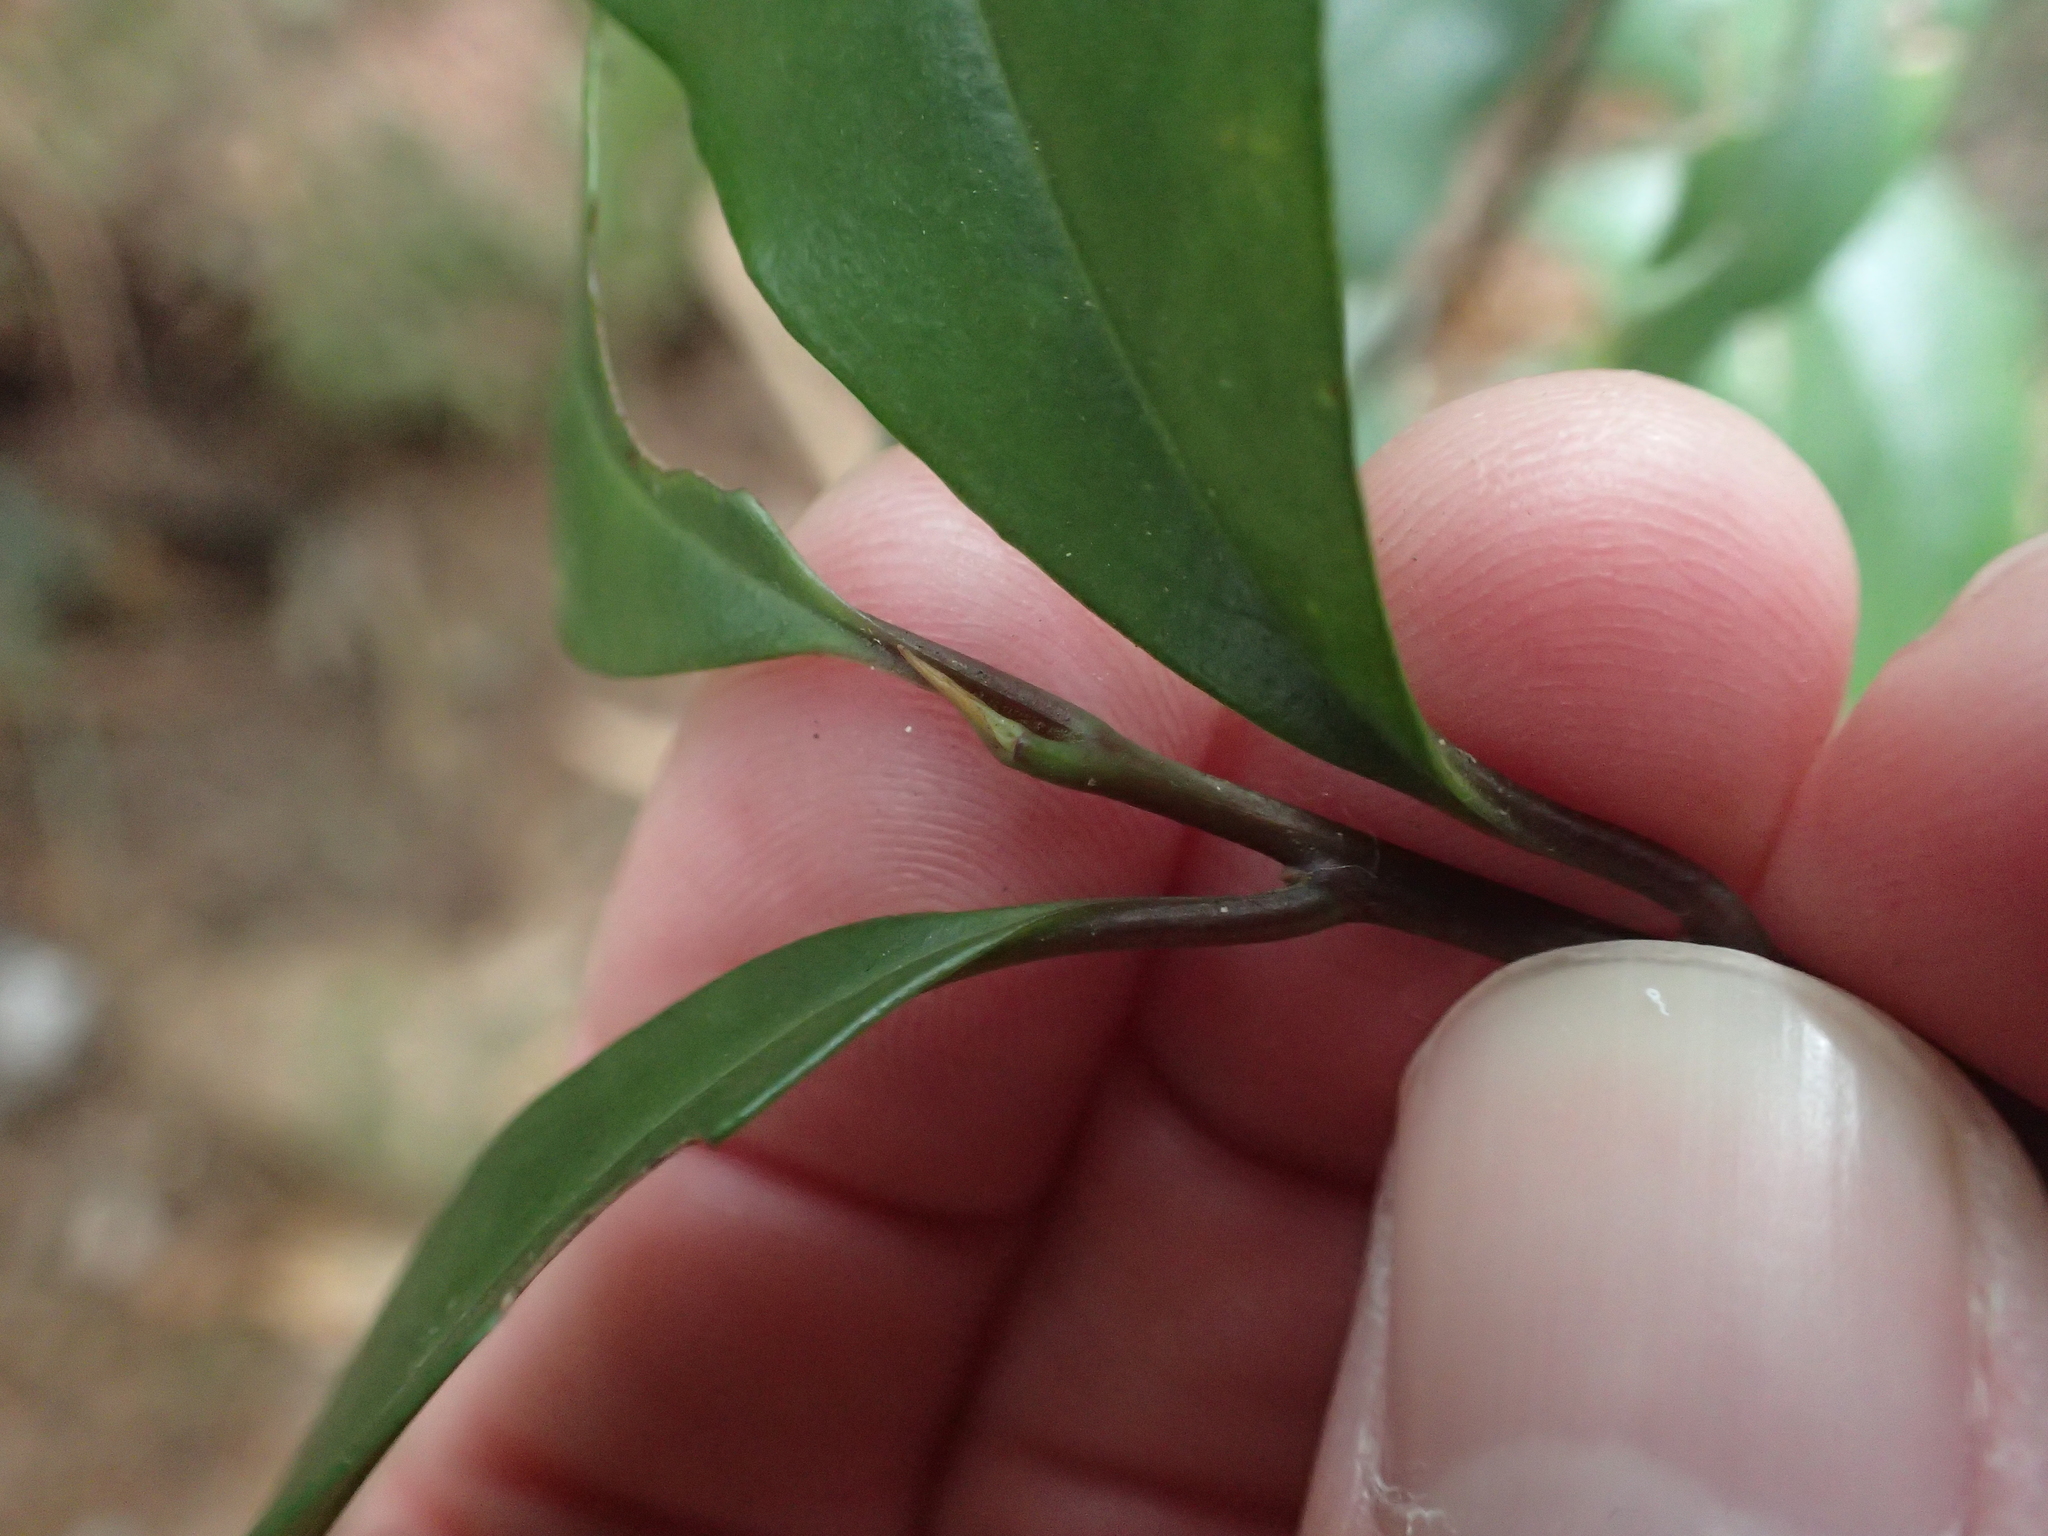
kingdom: Plantae
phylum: Tracheophyta
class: Magnoliopsida
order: Ericales
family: Primulaceae
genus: Myrsine
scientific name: Myrsine stolonifera
